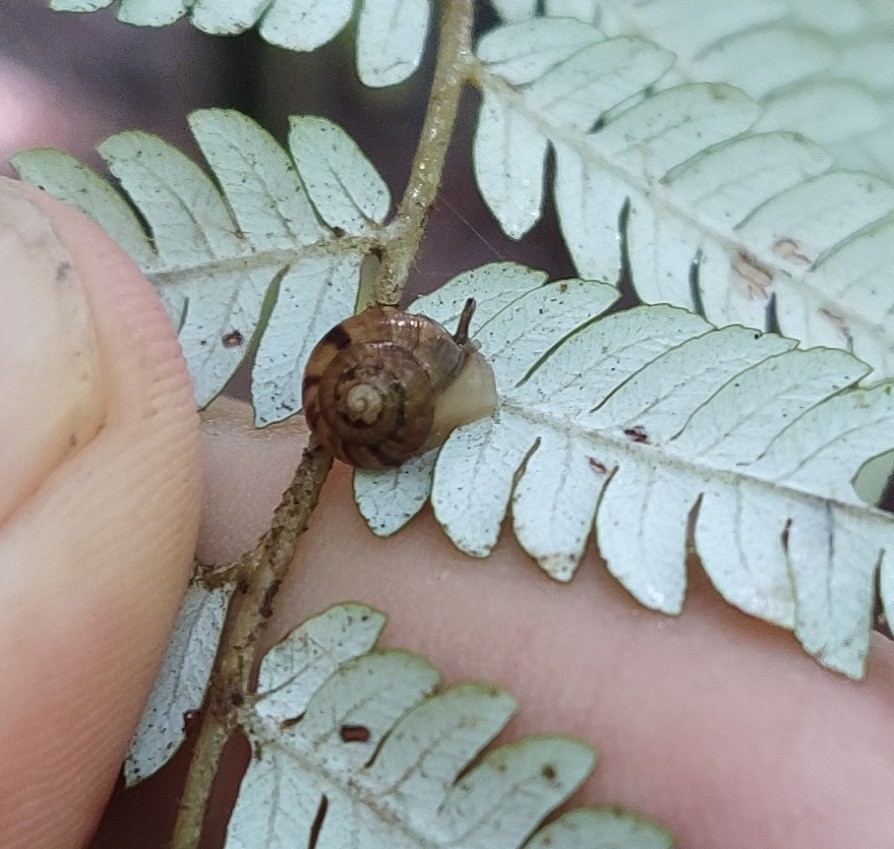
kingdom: Animalia
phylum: Mollusca
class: Gastropoda
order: Stylommatophora
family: Charopidae
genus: Serpho
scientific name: Serpho
